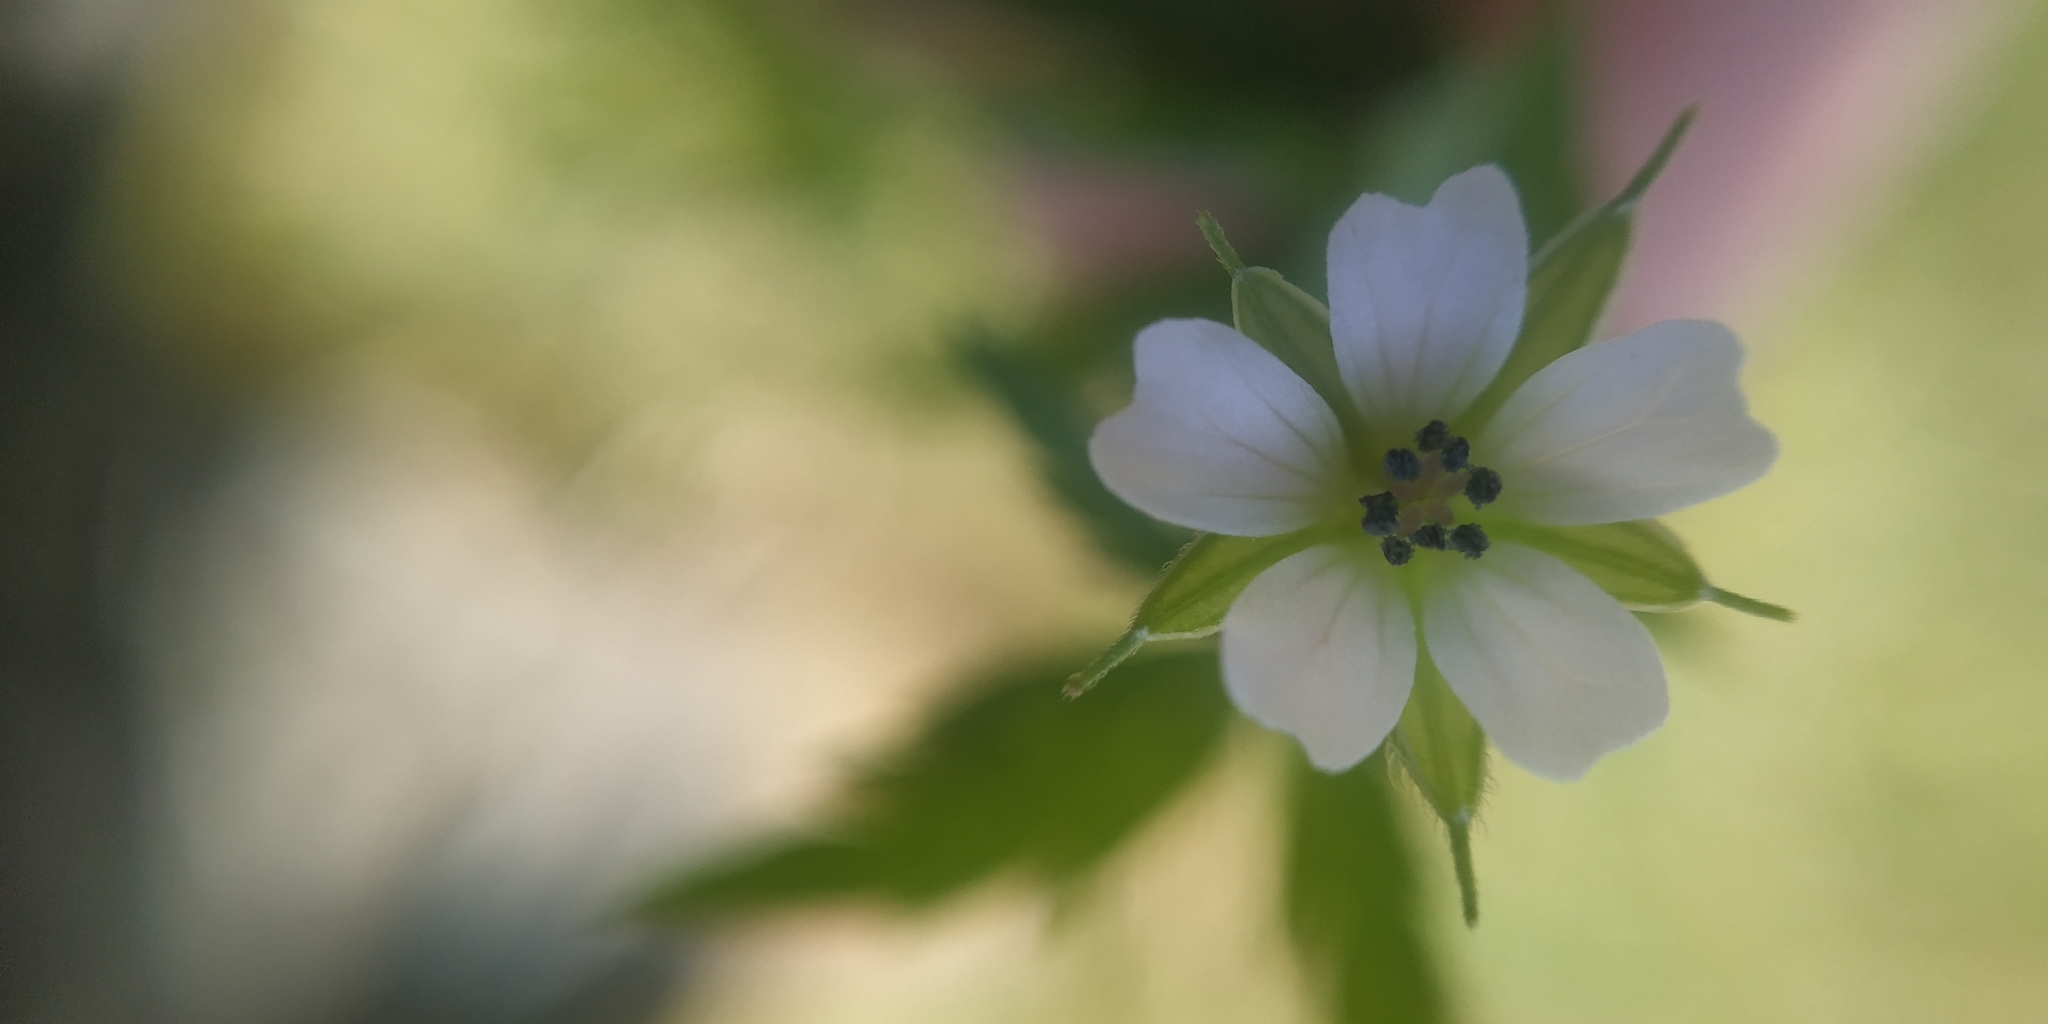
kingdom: Plantae
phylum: Tracheophyta
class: Magnoliopsida
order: Geraniales
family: Geraniaceae
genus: Geranium
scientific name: Geranium sibiricum
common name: Siberian crane's-bill
